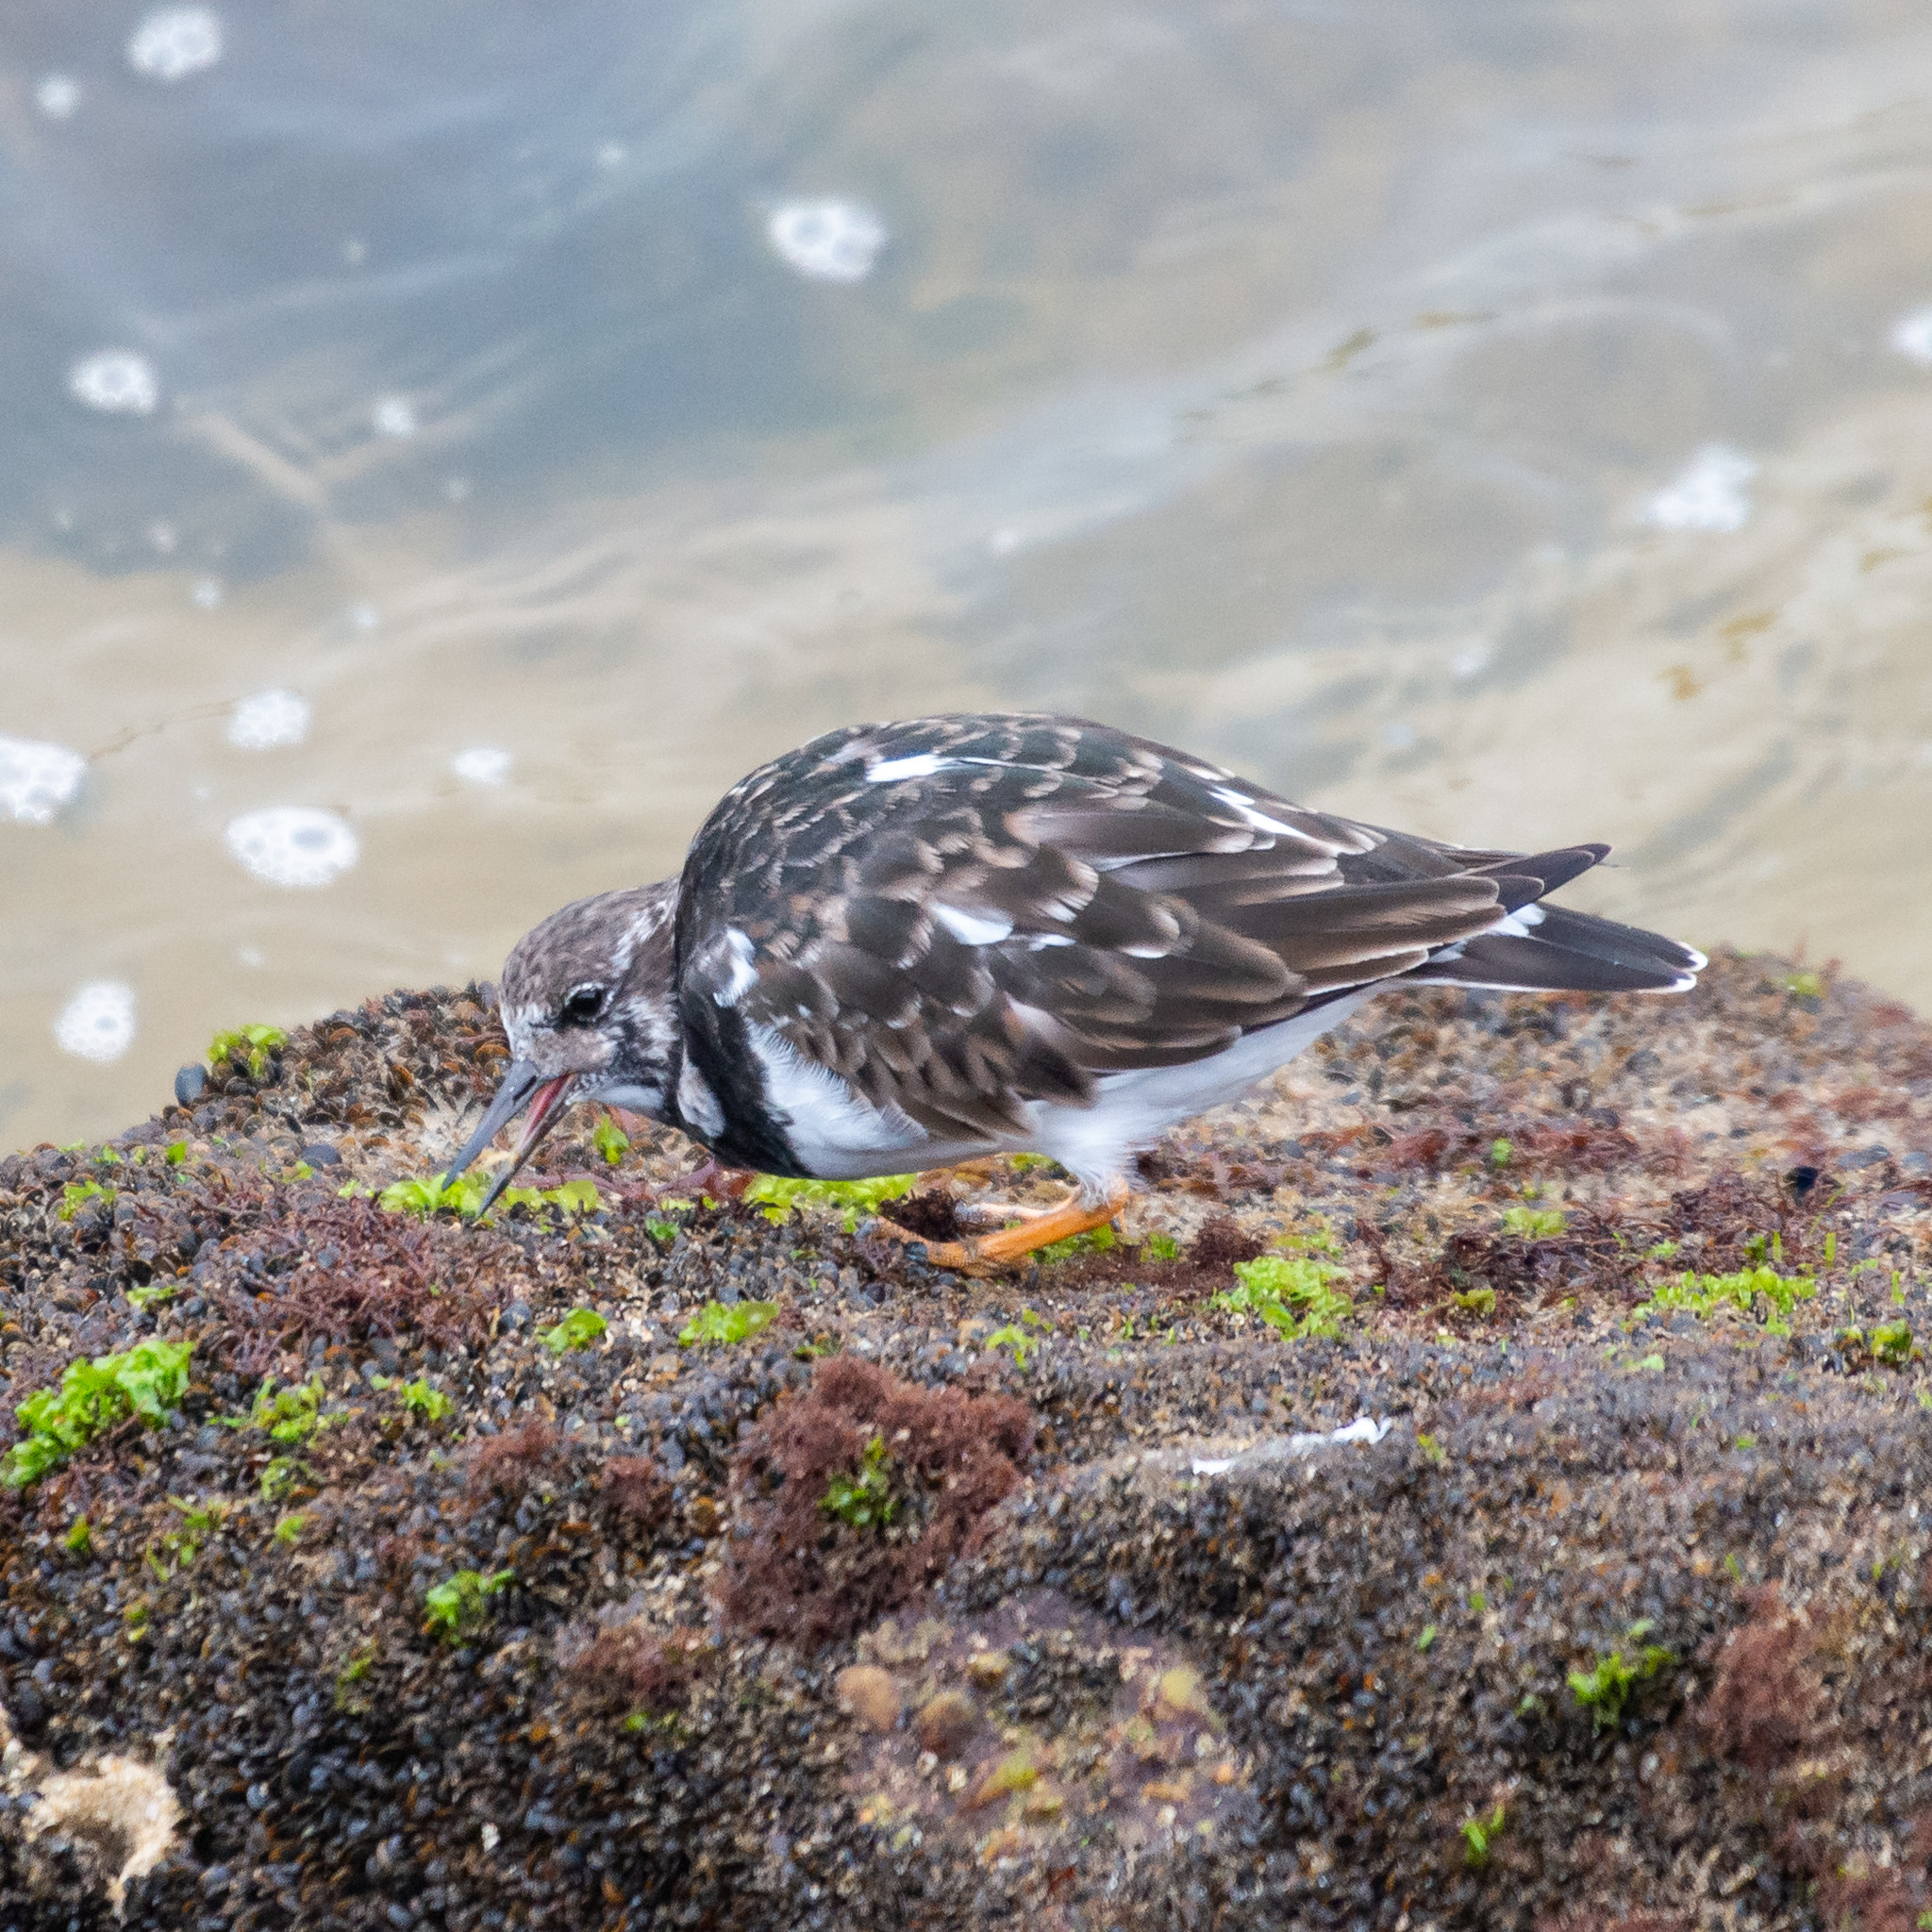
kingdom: Animalia
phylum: Chordata
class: Aves
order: Charadriiformes
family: Scolopacidae
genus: Arenaria
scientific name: Arenaria interpres
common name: Ruddy turnstone
